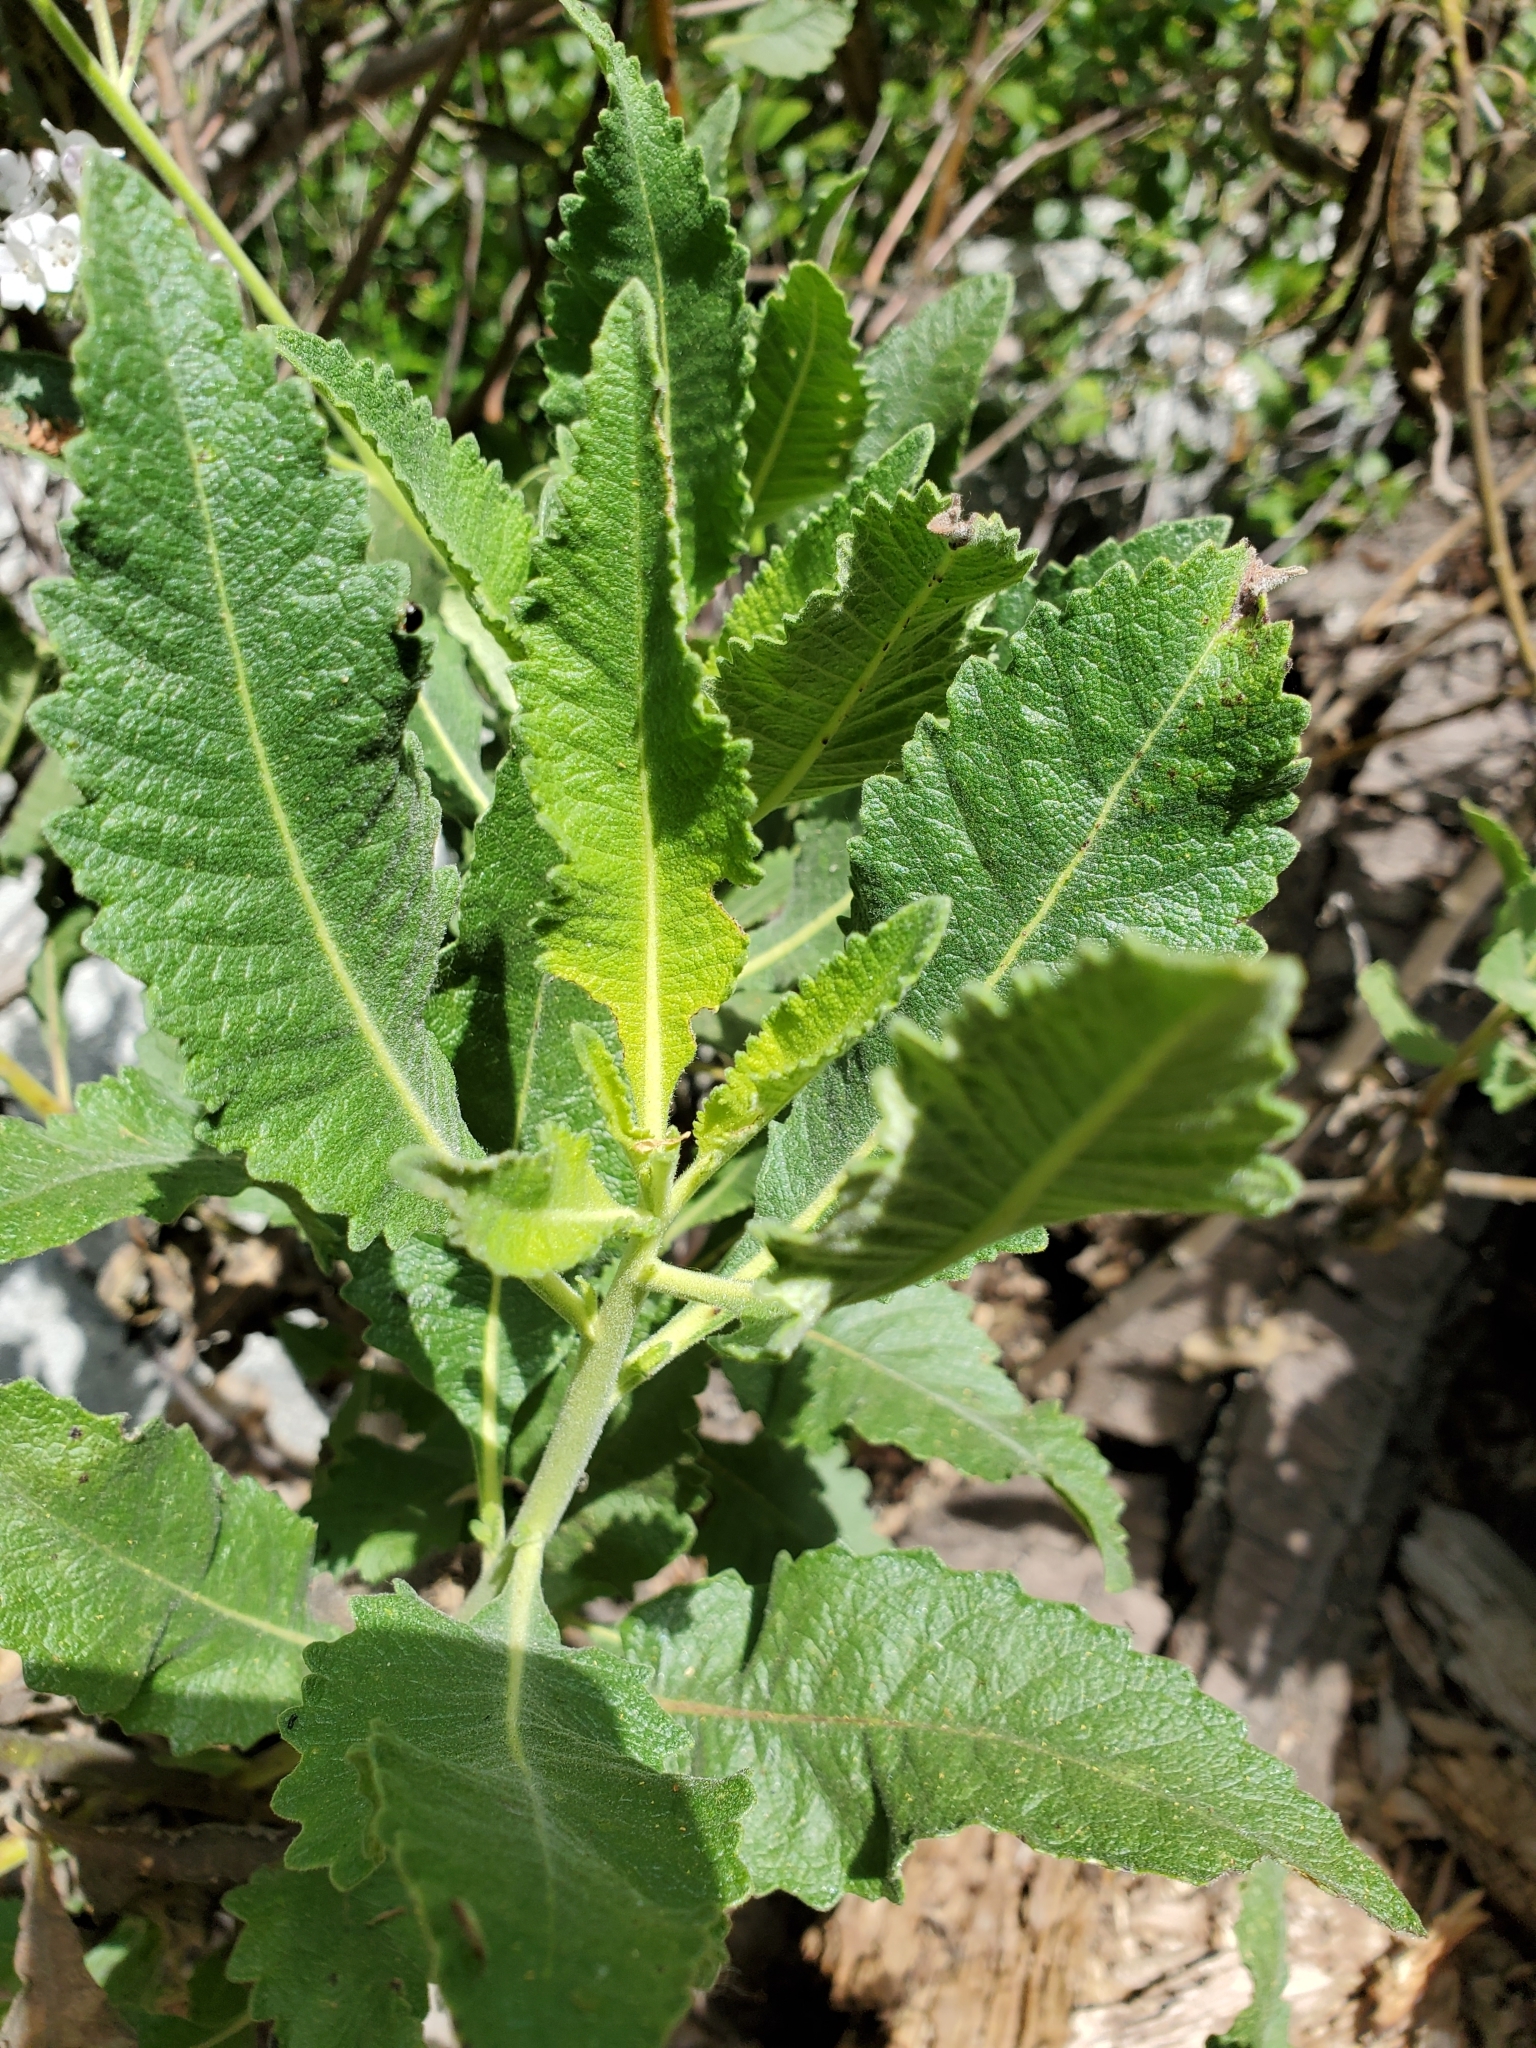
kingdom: Plantae
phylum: Tracheophyta
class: Magnoliopsida
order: Boraginales
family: Namaceae
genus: Eriodictyon
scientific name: Eriodictyon crassifolium
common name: Thick-leaf yerba-santa
